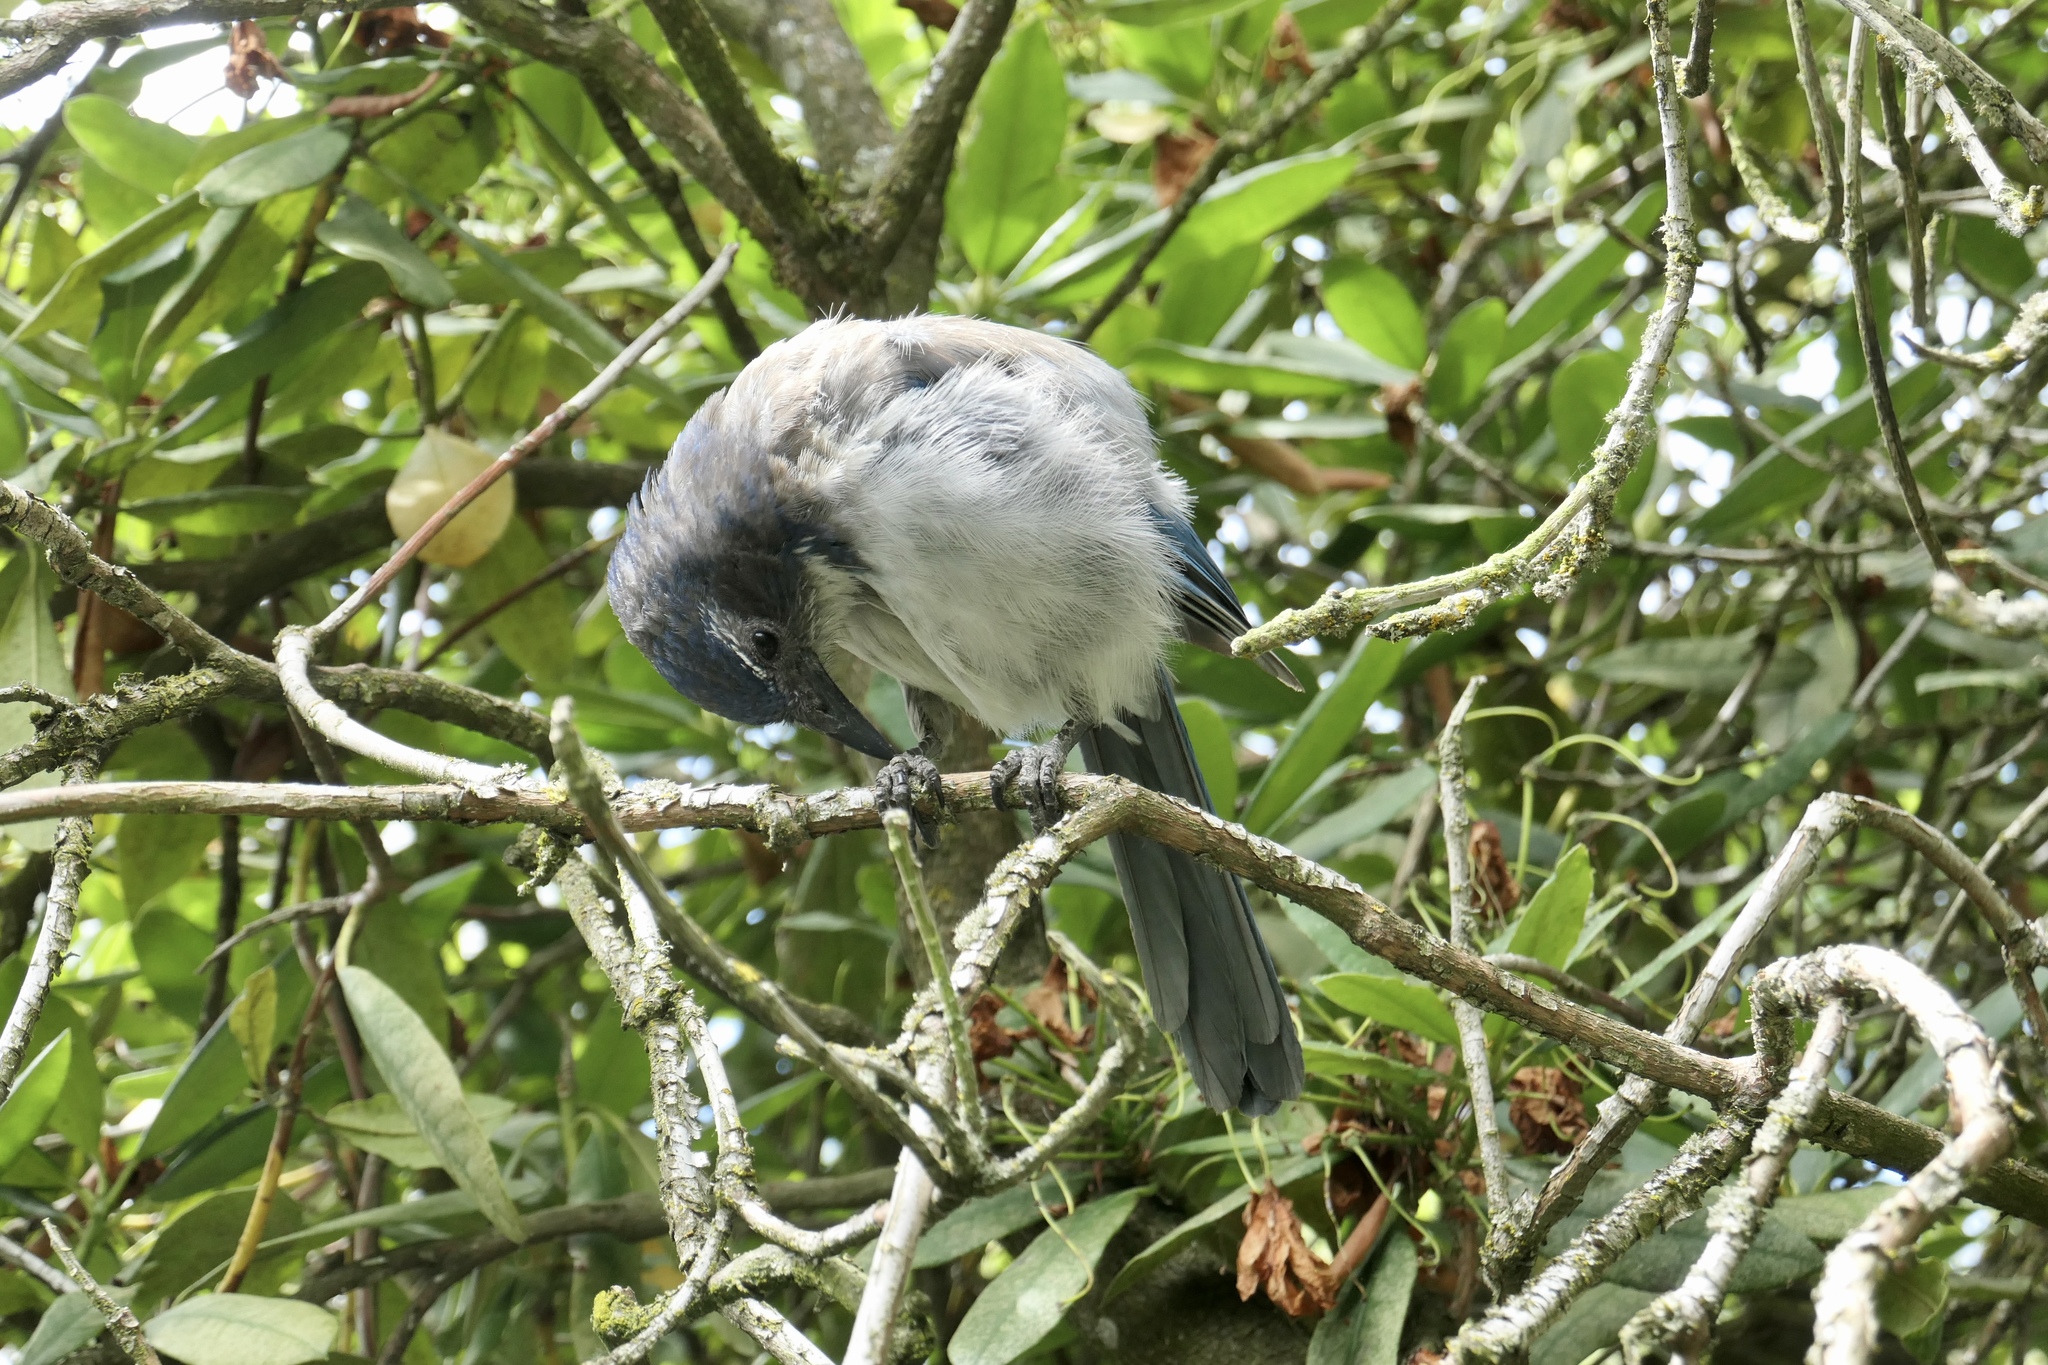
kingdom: Animalia
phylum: Chordata
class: Aves
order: Passeriformes
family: Corvidae
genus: Aphelocoma
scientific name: Aphelocoma californica
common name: California scrub-jay
